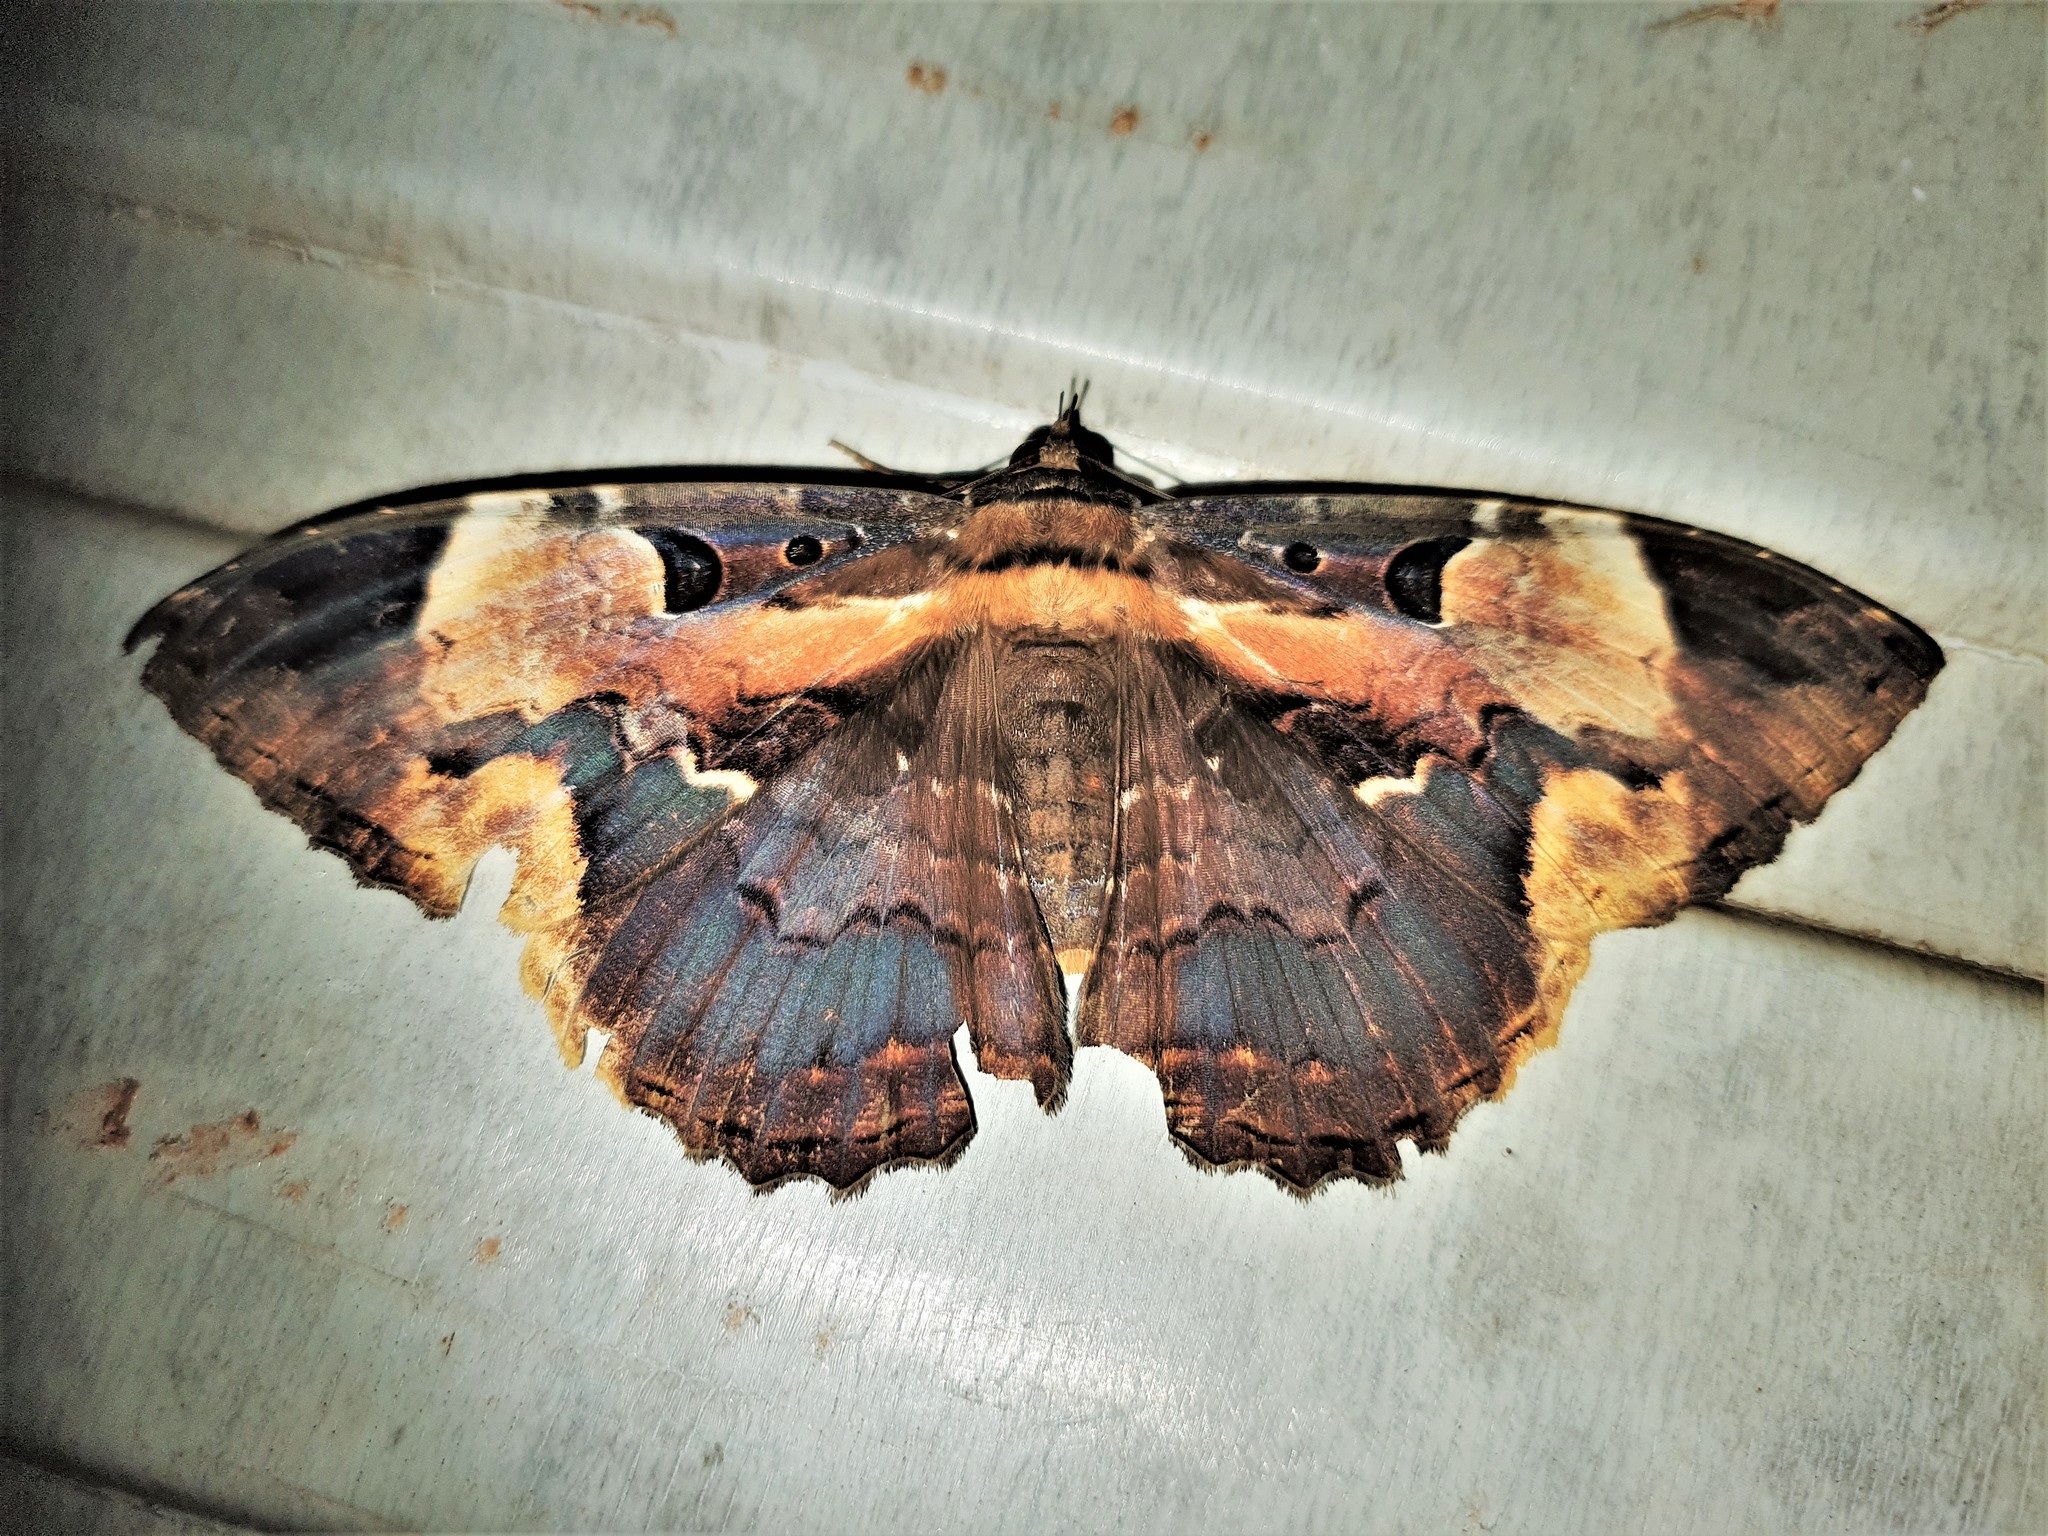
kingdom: Animalia
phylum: Arthropoda
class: Insecta
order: Lepidoptera
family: Erebidae
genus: Feigeria
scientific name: Feigeria herilia
